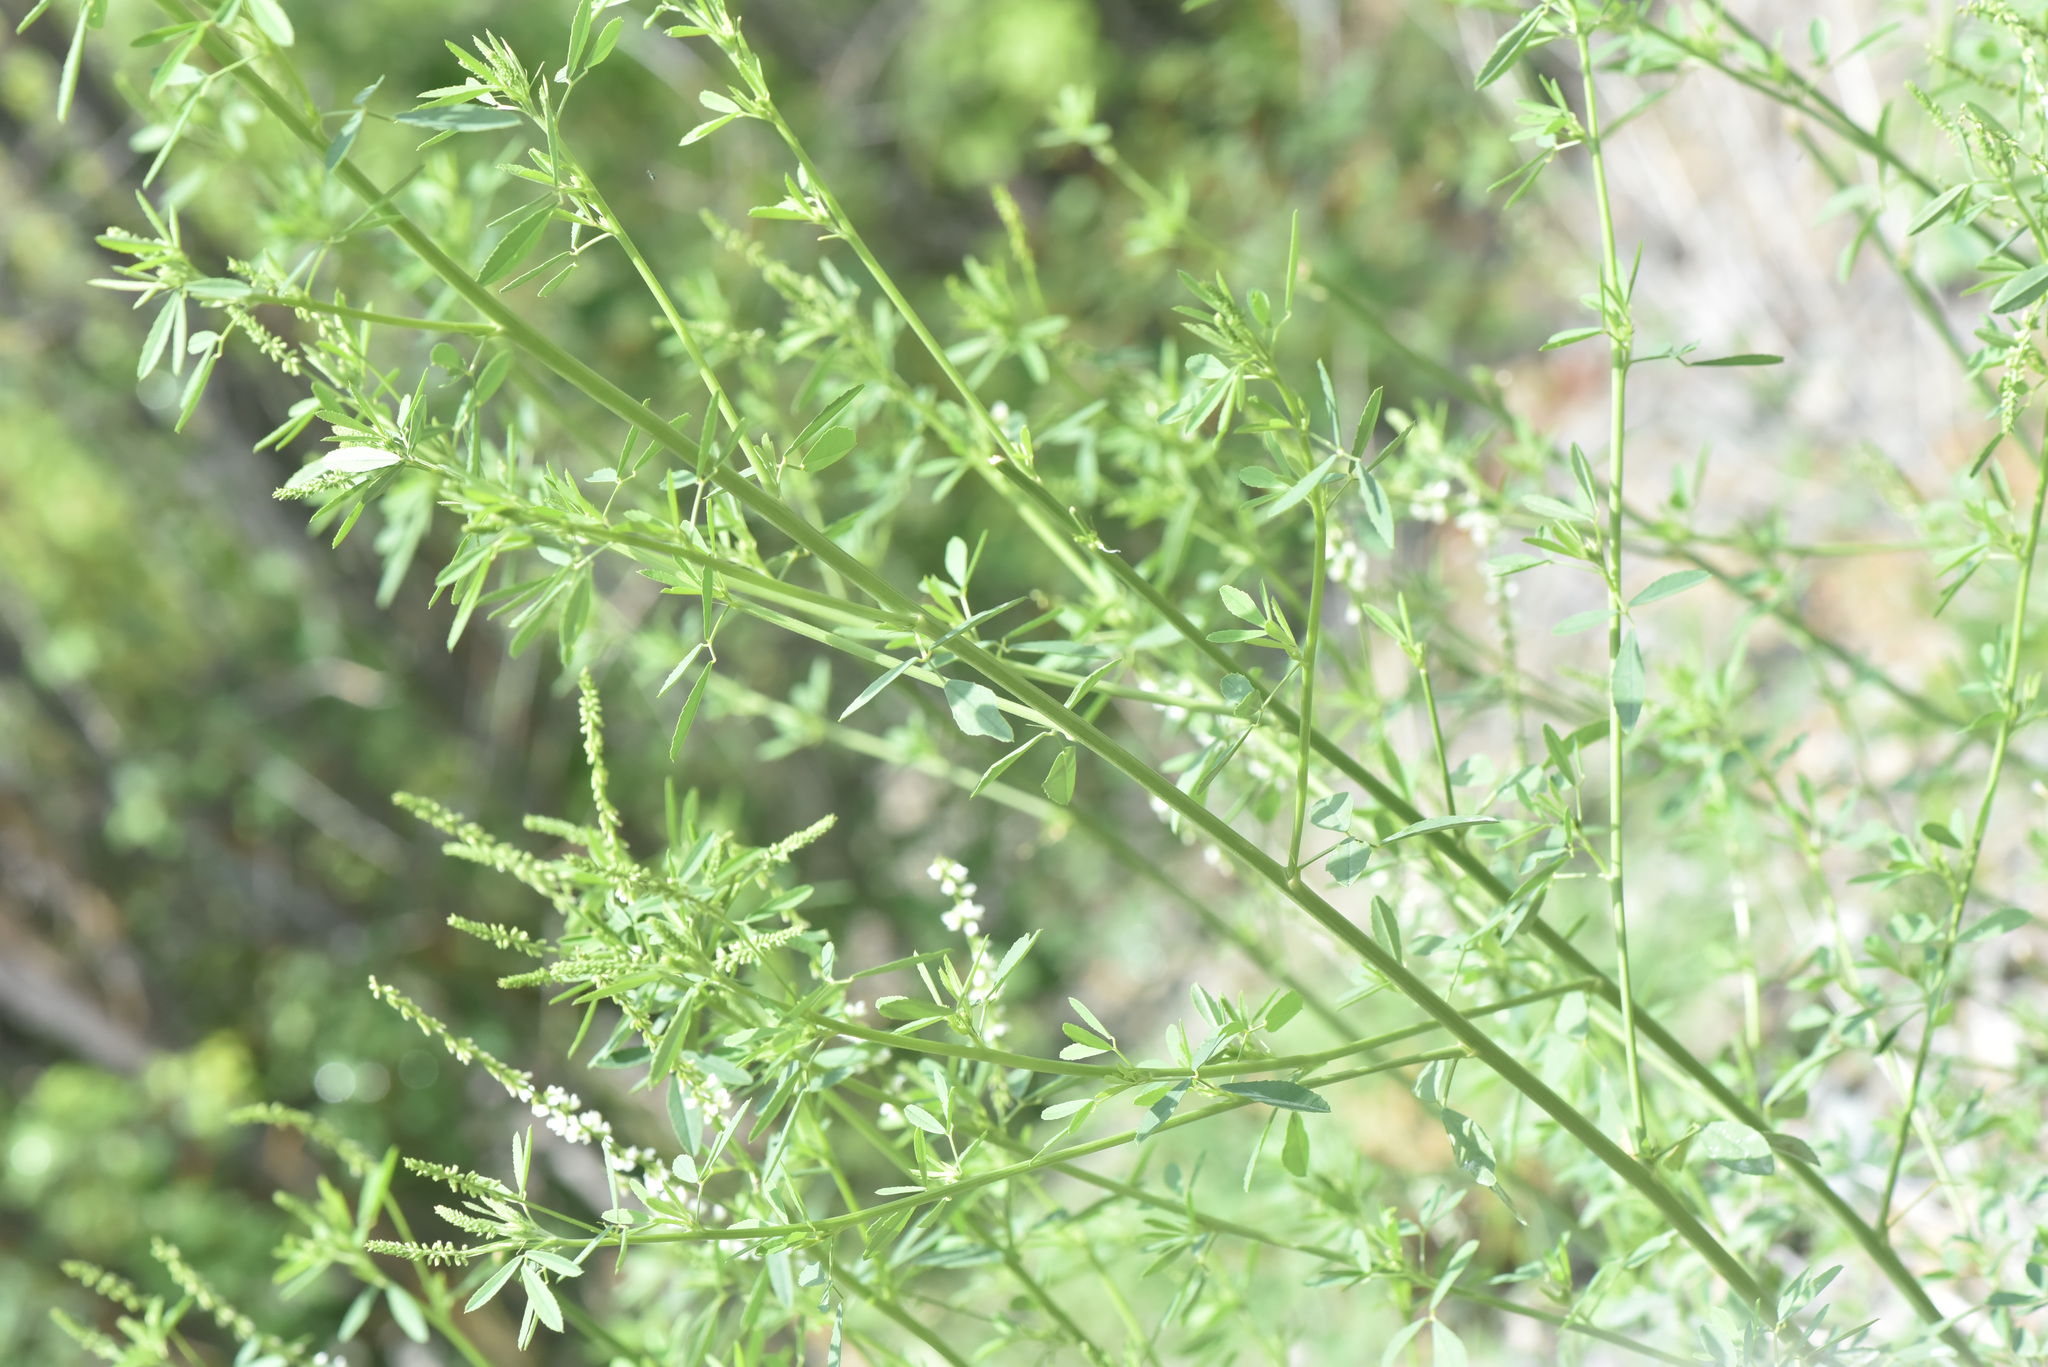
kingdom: Plantae
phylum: Tracheophyta
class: Magnoliopsida
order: Fabales
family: Fabaceae
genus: Melilotus
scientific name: Melilotus albus
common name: White melilot
